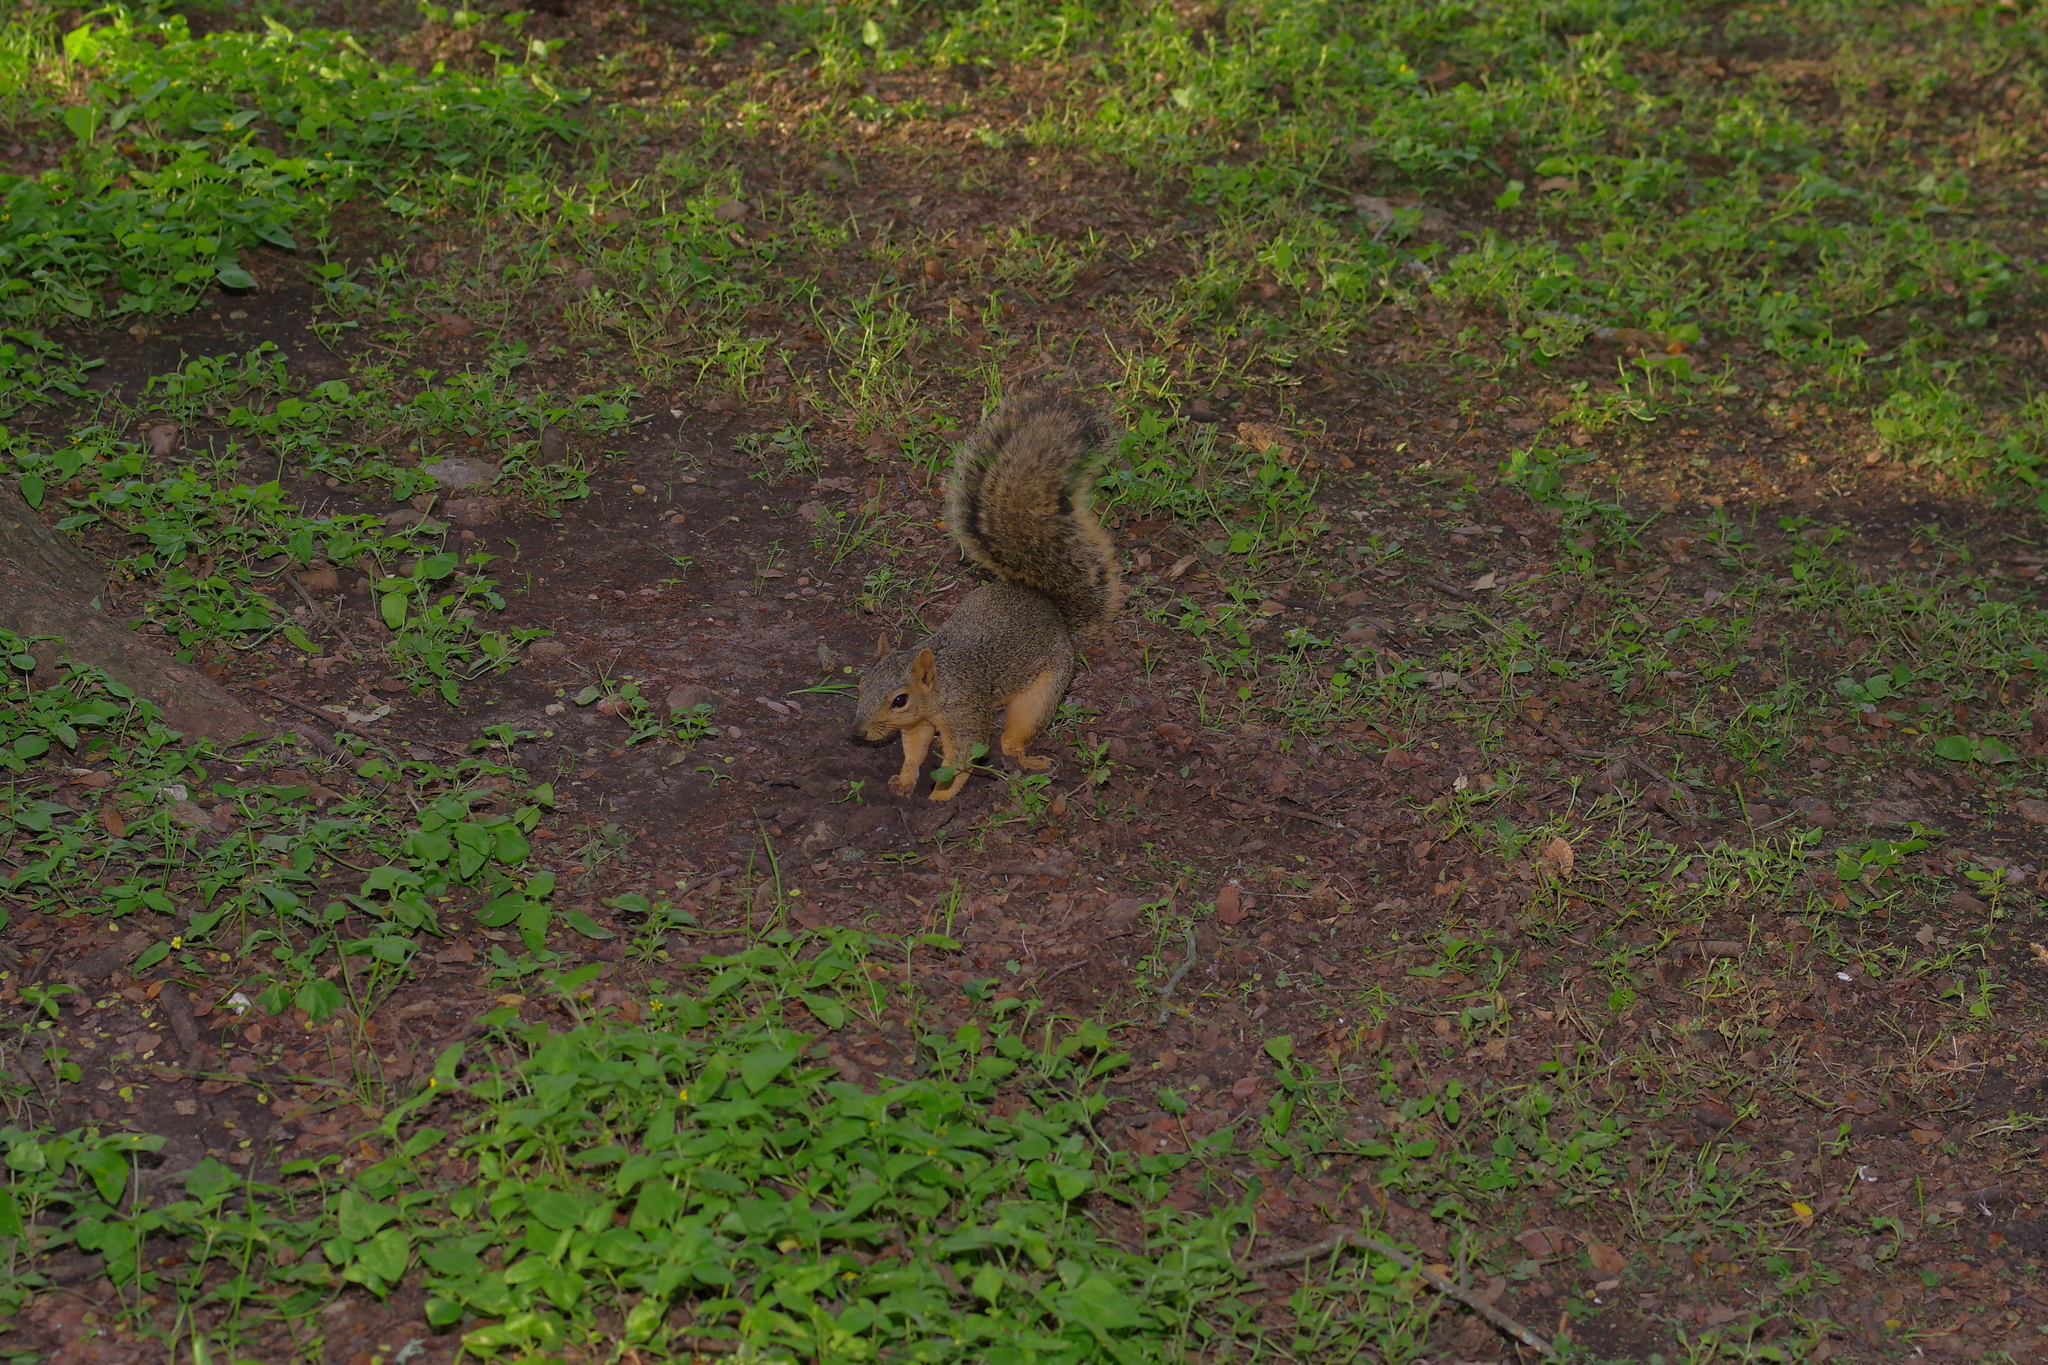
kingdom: Animalia
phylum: Chordata
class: Mammalia
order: Rodentia
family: Sciuridae
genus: Sciurus
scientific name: Sciurus niger
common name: Fox squirrel
